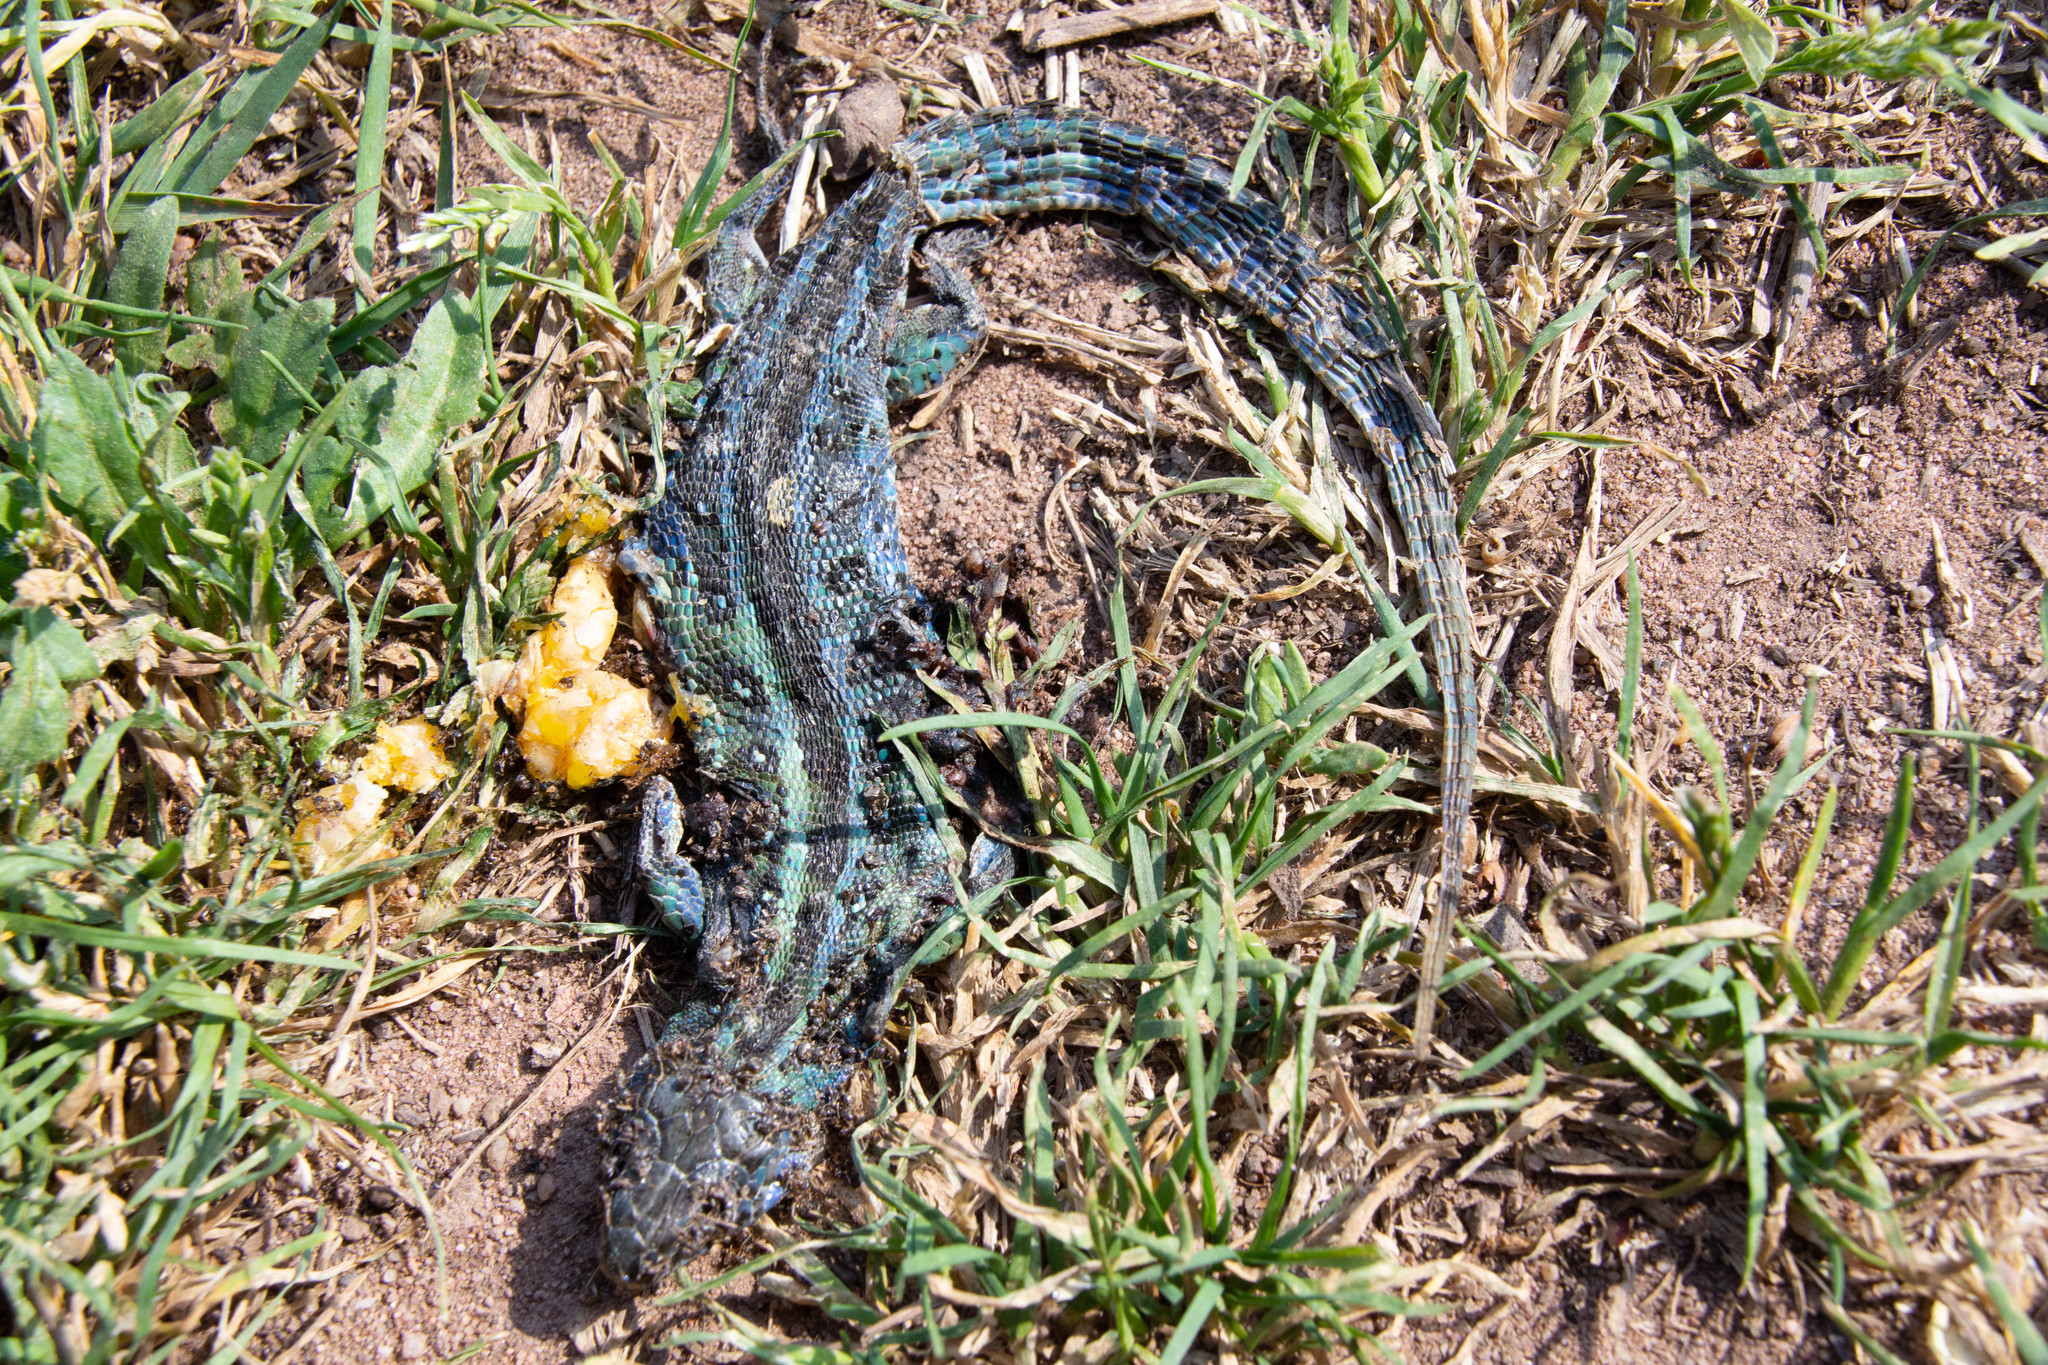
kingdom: Animalia
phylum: Chordata
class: Squamata
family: Lacertidae
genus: Lacerta
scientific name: Lacerta agilis
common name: Sand lizard
